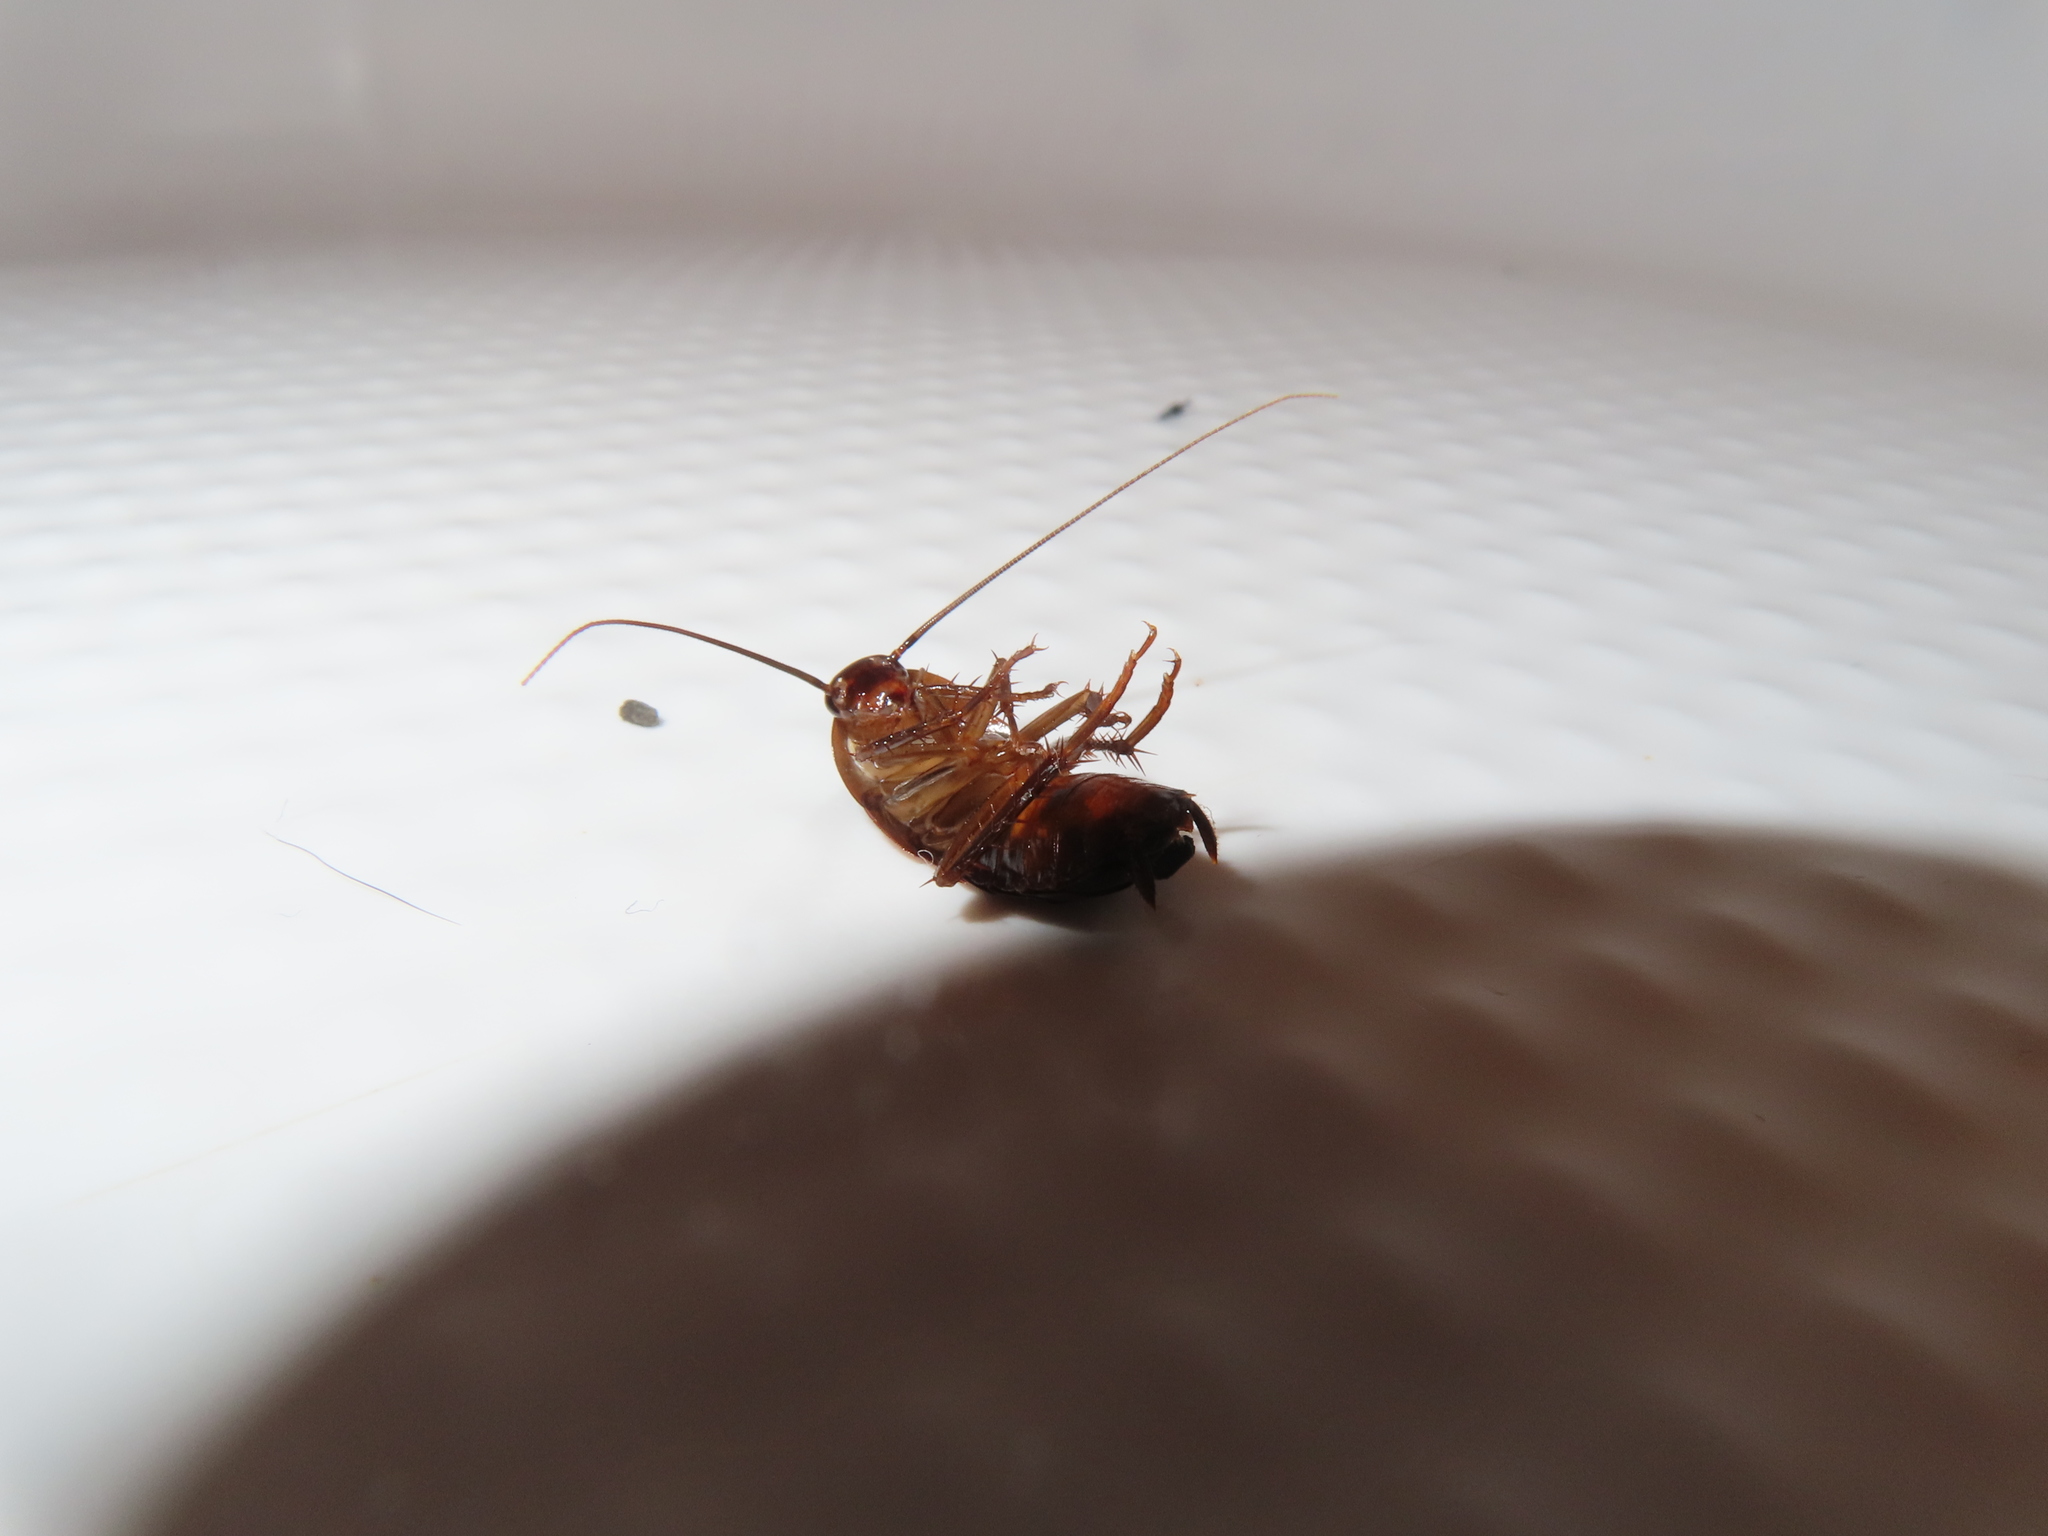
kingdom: Animalia
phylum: Arthropoda
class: Insecta
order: Blattodea
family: Blattidae
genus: Periplaneta
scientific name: Periplaneta americana
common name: American cockroach
